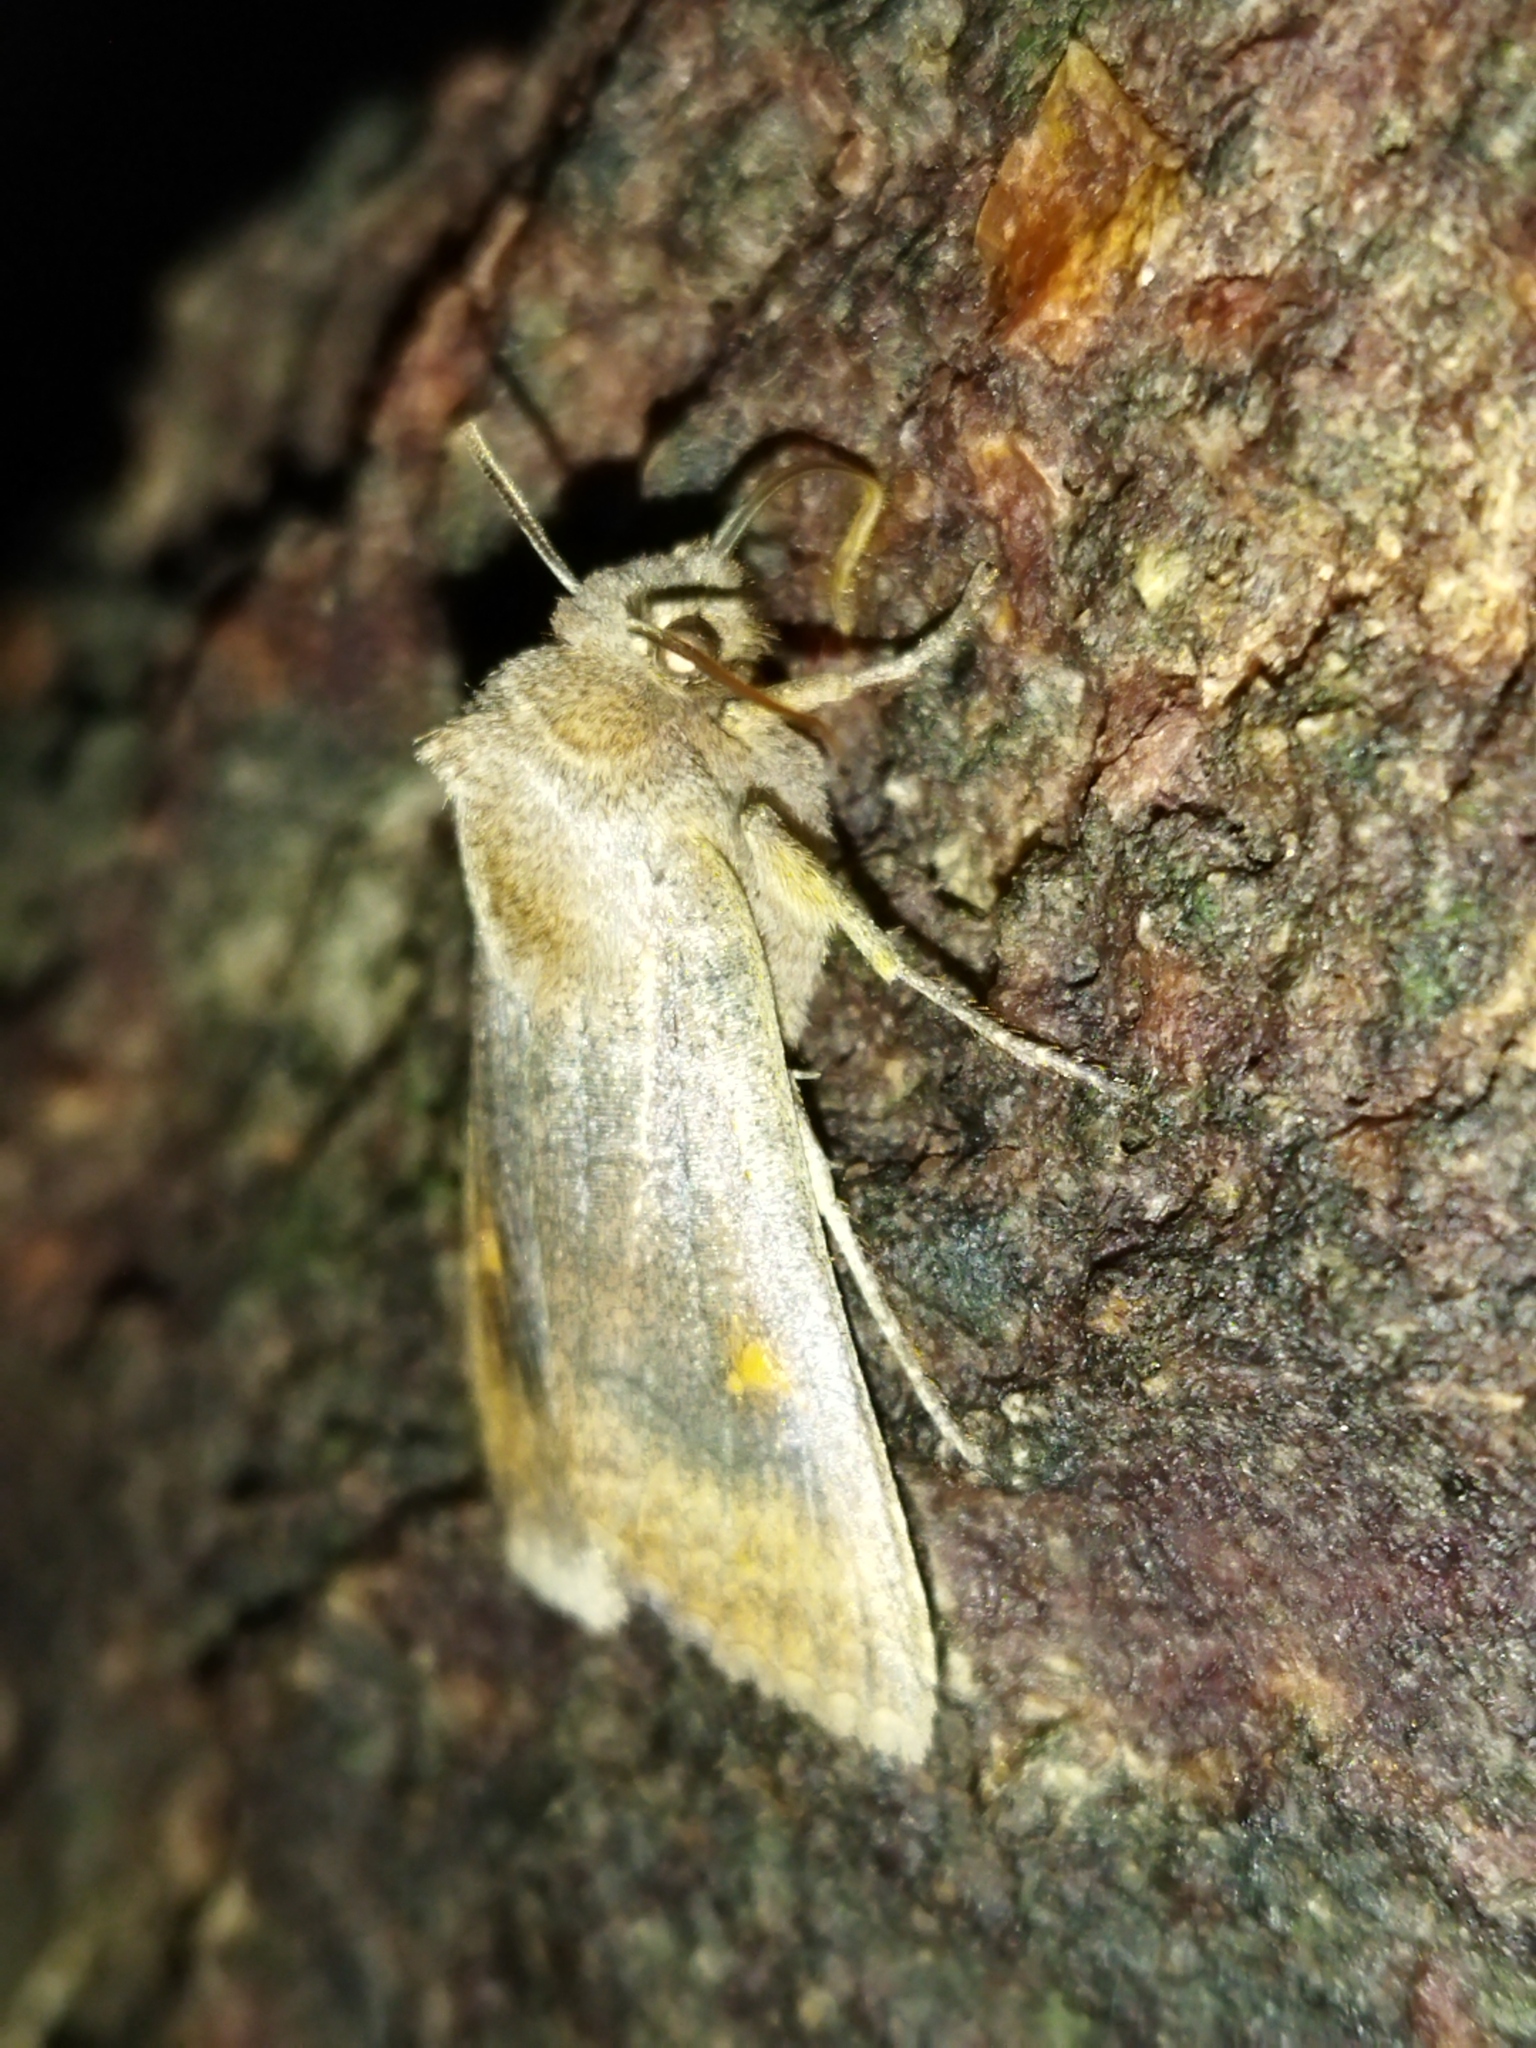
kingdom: Animalia
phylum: Arthropoda
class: Insecta
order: Lepidoptera
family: Noctuidae
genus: Eupsilia
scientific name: Eupsilia transversa
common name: Satellite
